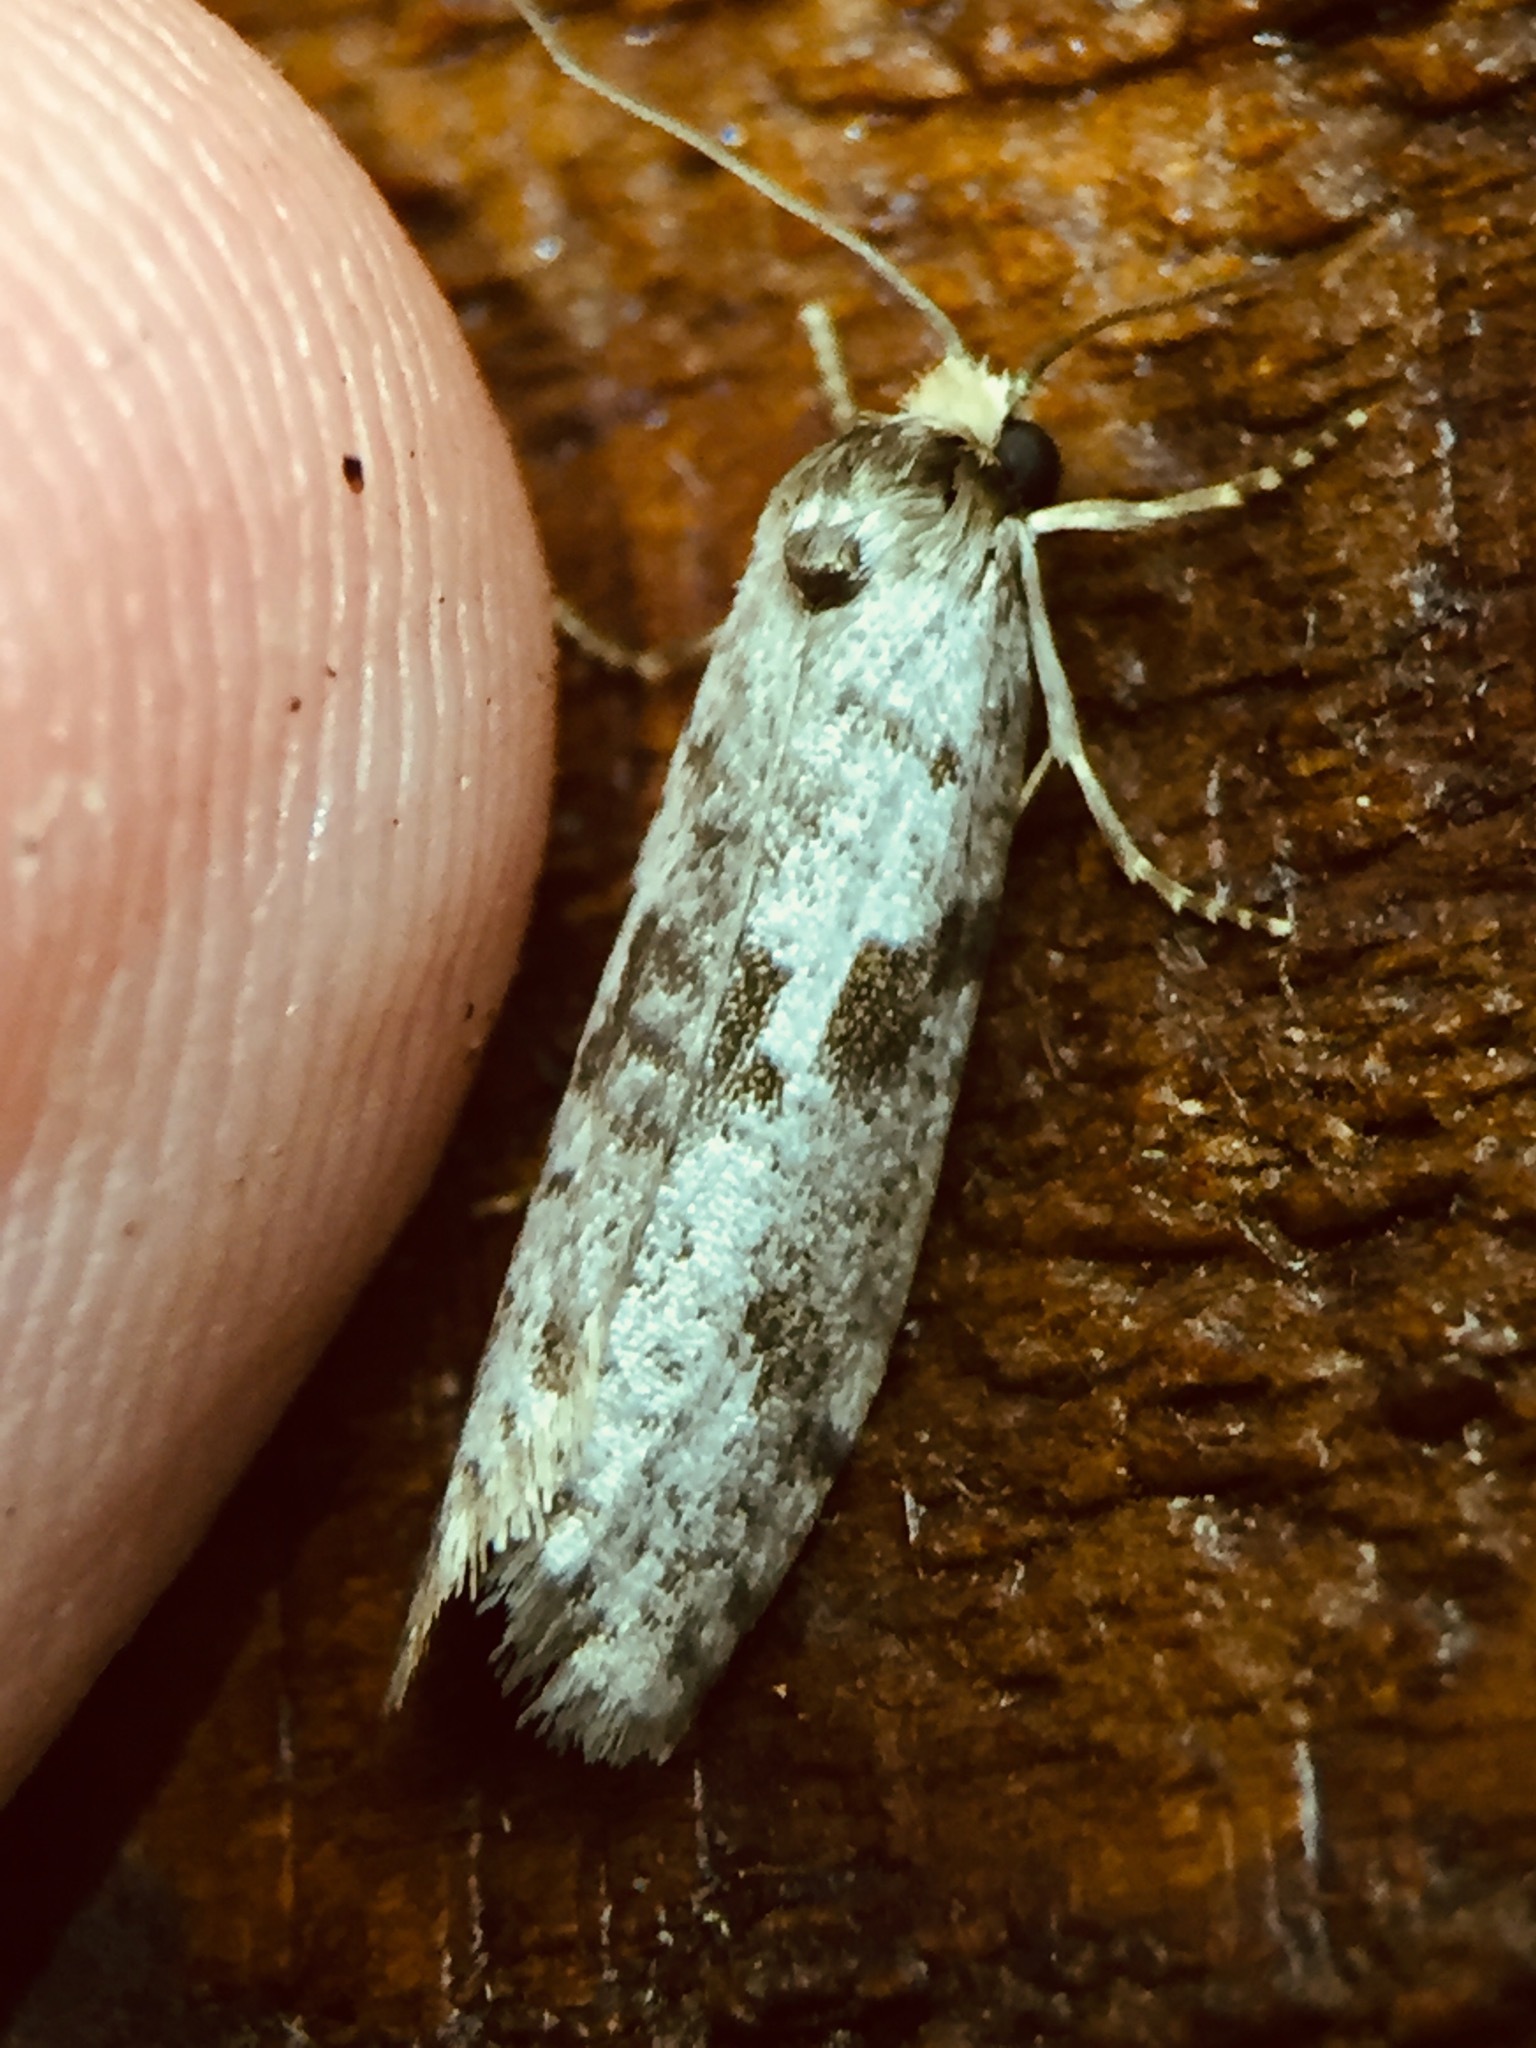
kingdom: Animalia
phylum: Arthropoda
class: Insecta
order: Lepidoptera
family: Psychidae
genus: Lepidoscia
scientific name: Lepidoscia protorna
